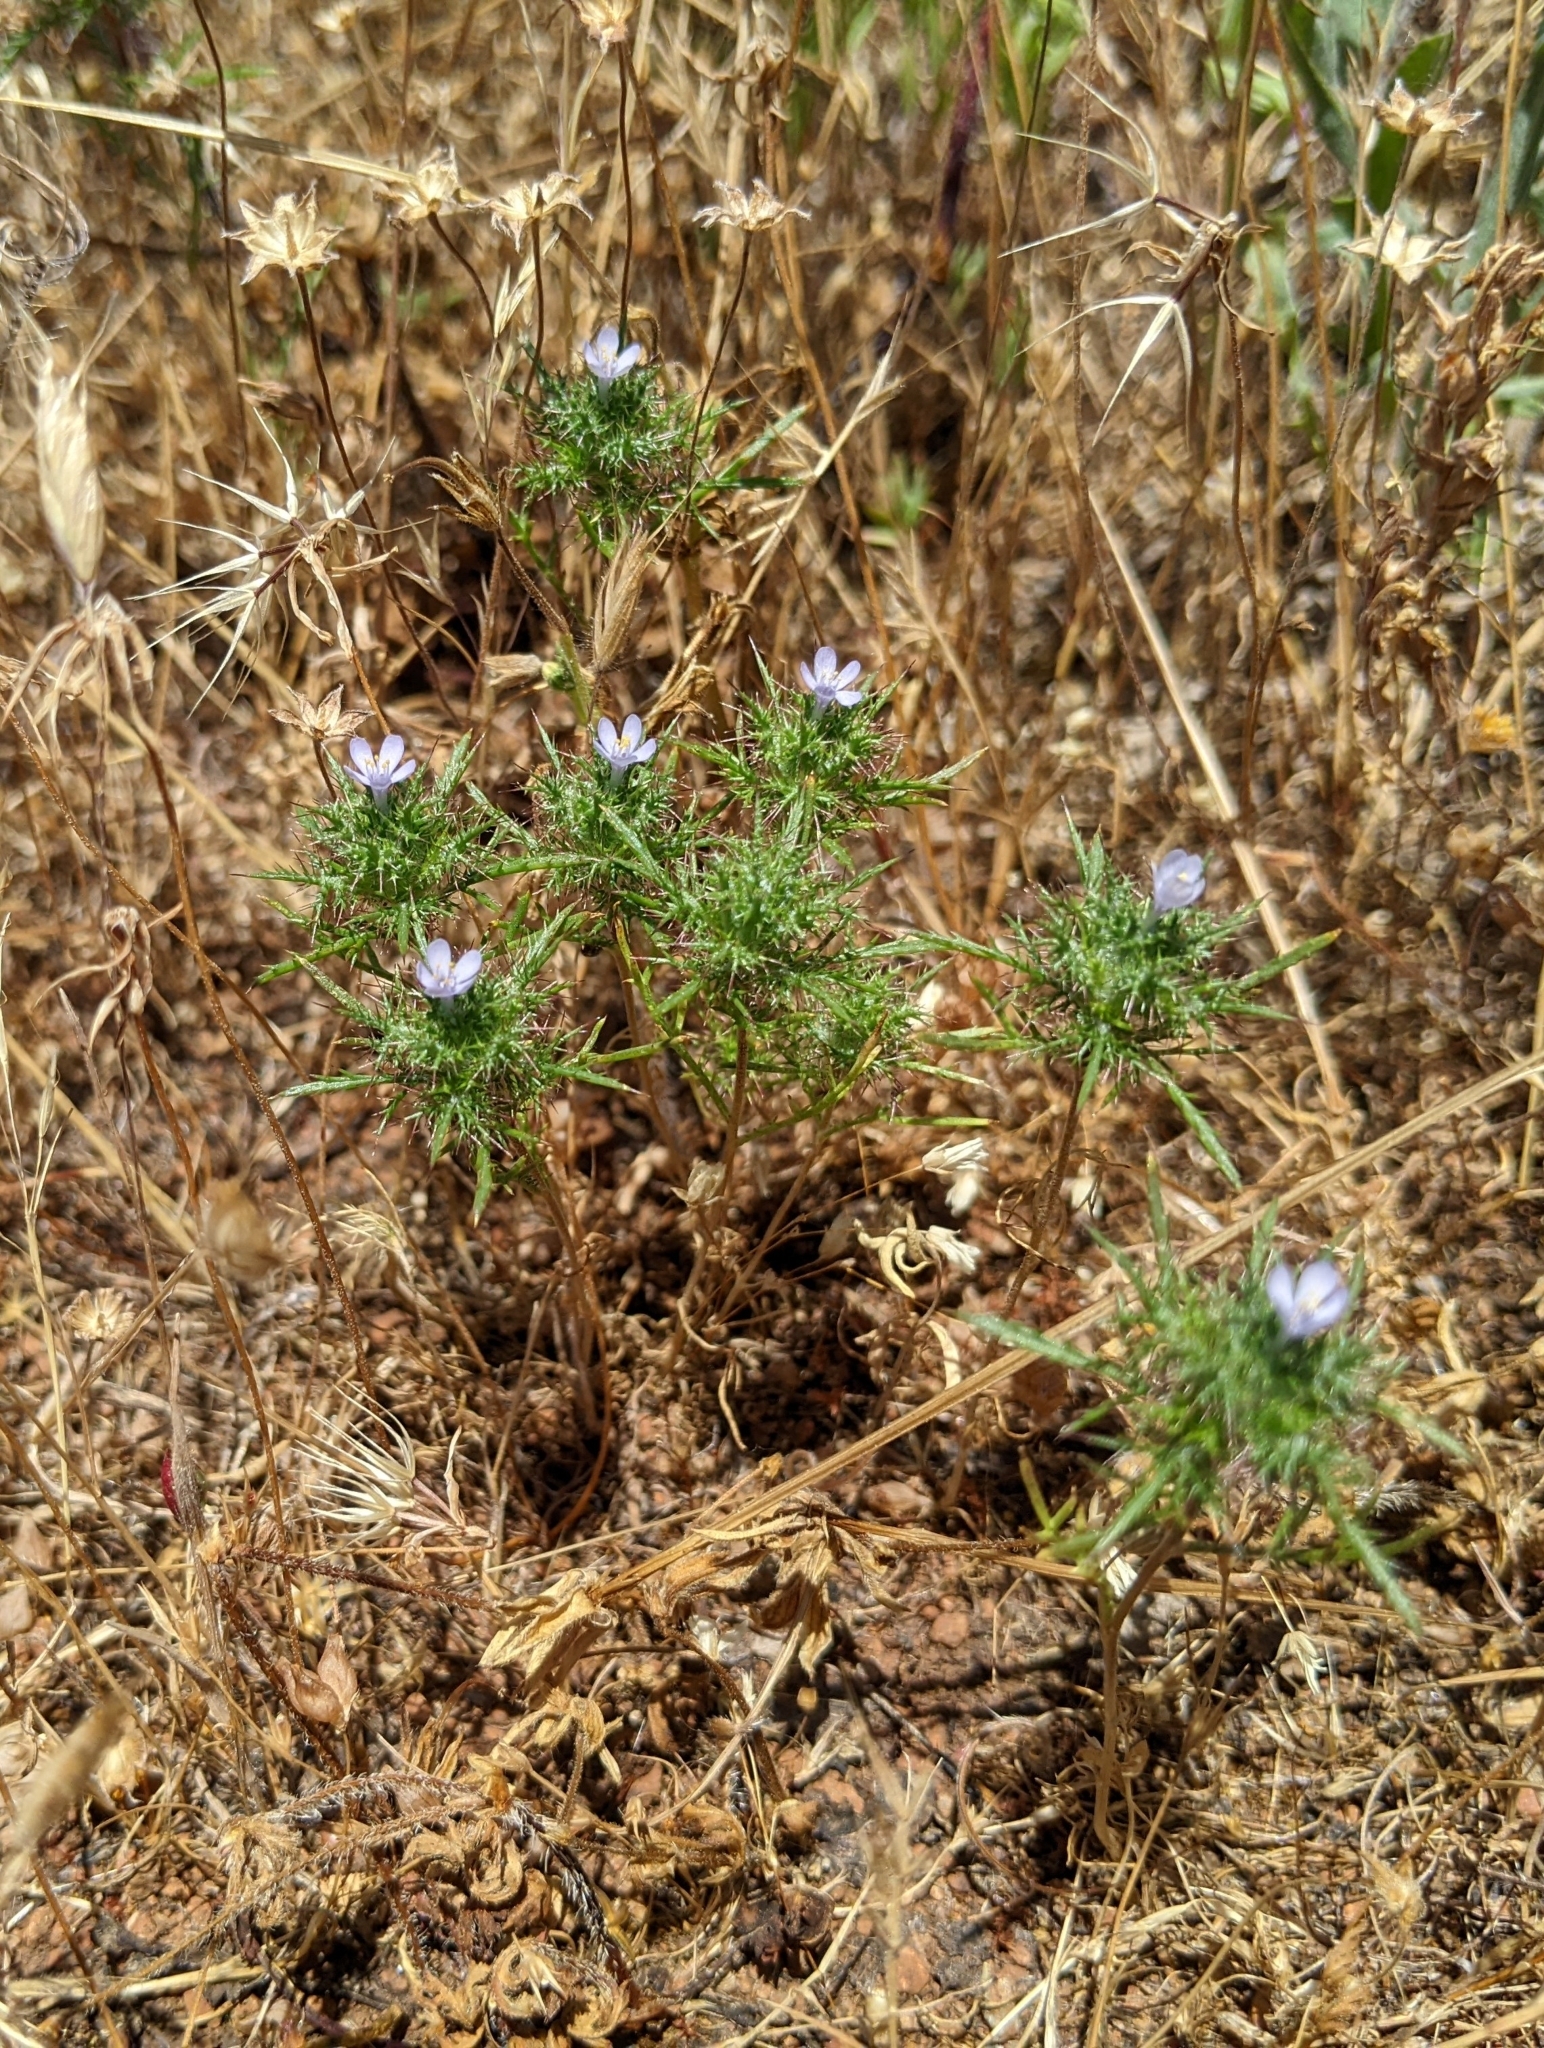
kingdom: Plantae
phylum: Tracheophyta
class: Magnoliopsida
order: Ericales
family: Polemoniaceae
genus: Navarretia
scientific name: Navarretia tagetina
